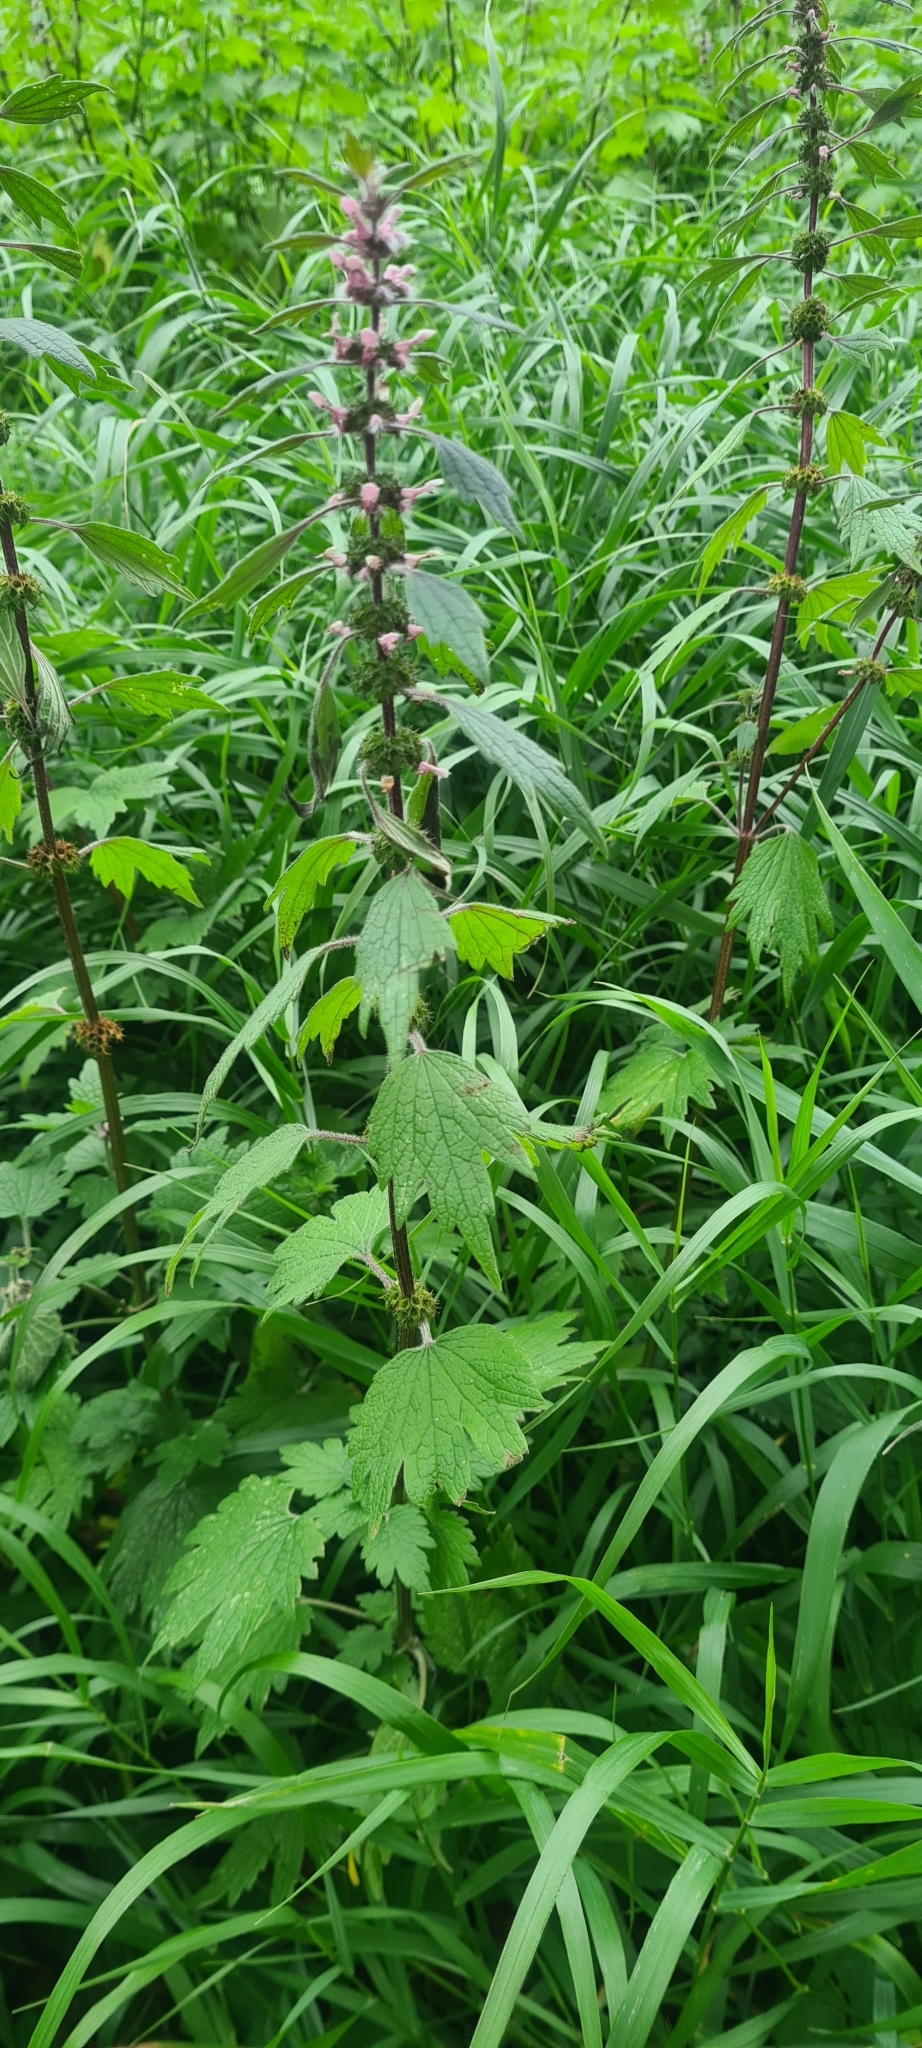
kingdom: Plantae
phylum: Tracheophyta
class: Magnoliopsida
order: Lamiales
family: Lamiaceae
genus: Leonurus
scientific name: Leonurus quinquelobatus
